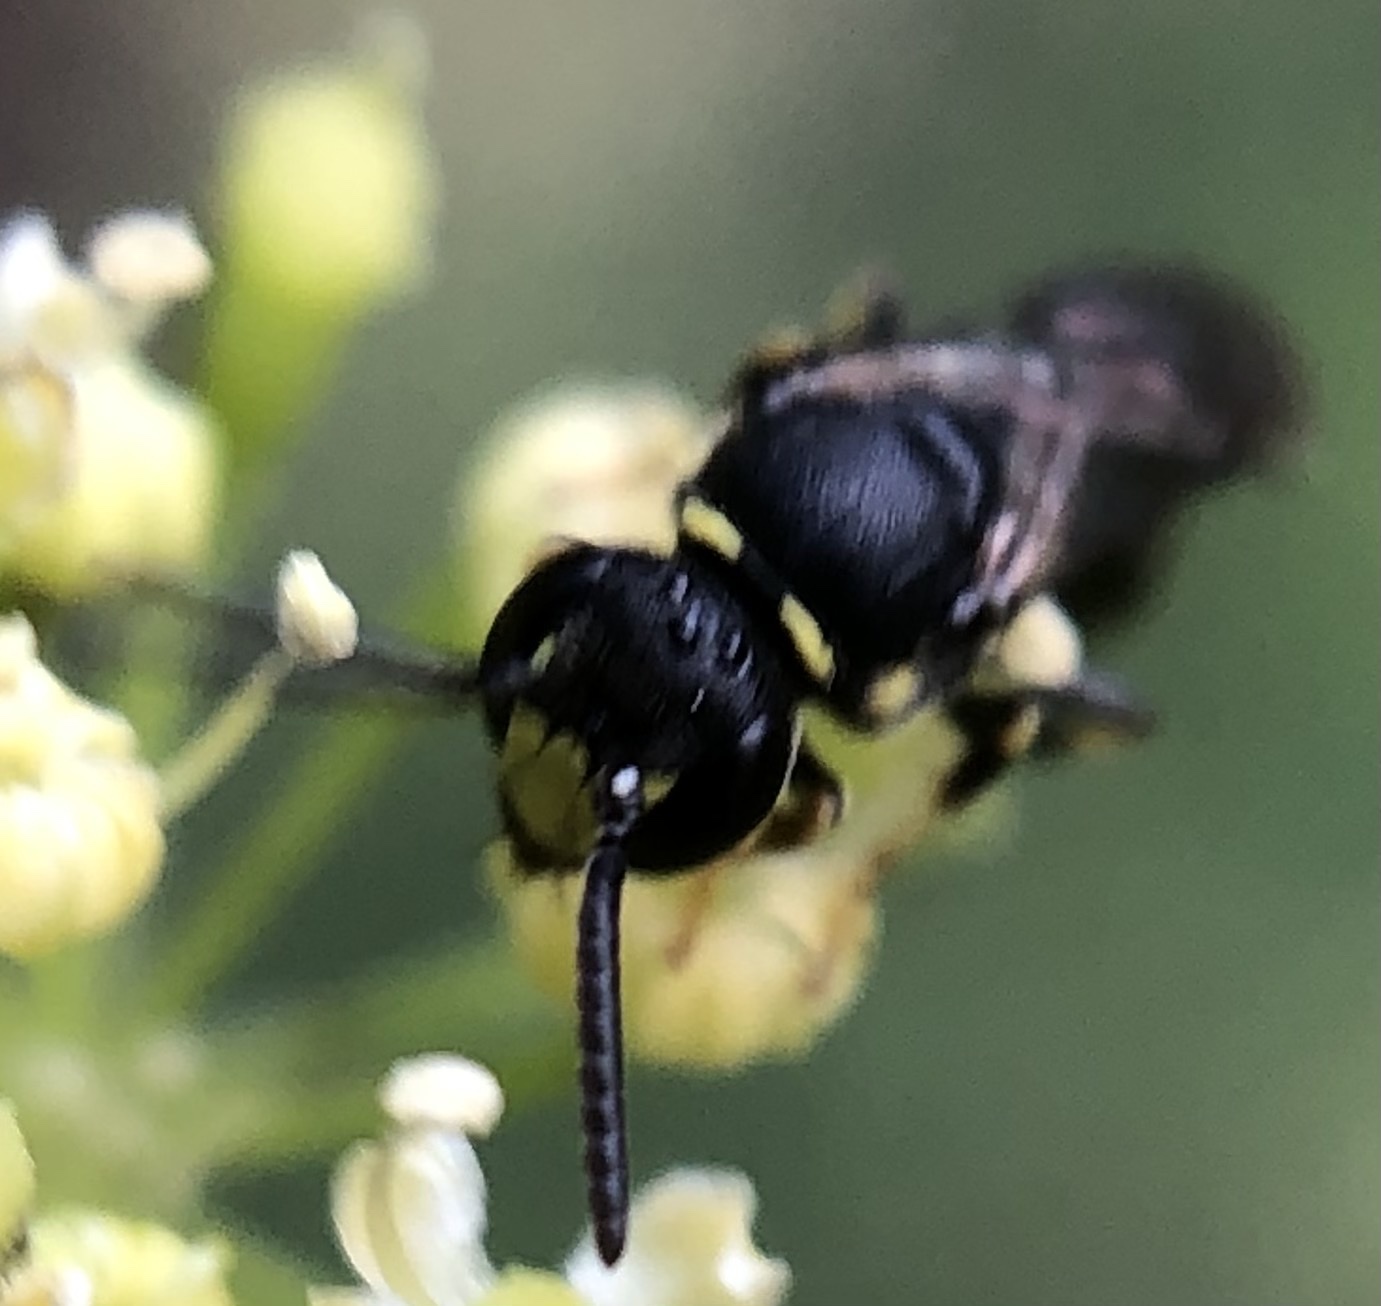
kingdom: Animalia
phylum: Arthropoda
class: Insecta
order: Hymenoptera
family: Colletidae
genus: Hylaeus
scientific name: Hylaeus modestus
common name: Yellow-faced bee
